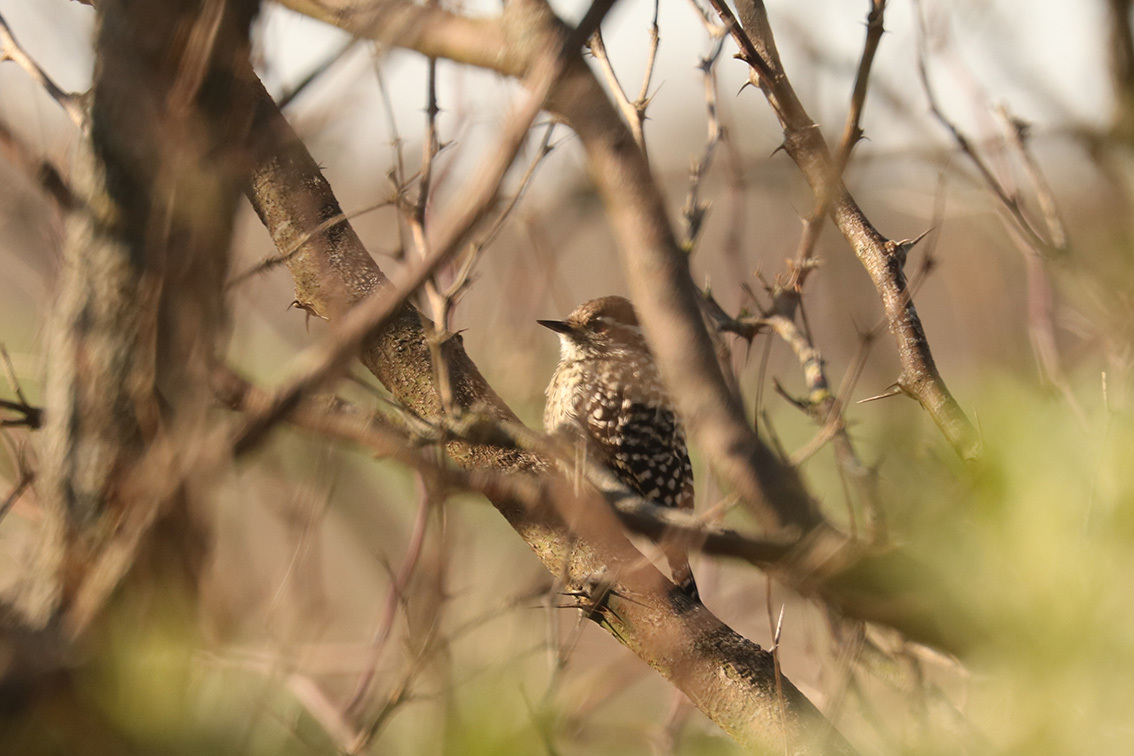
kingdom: Animalia
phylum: Chordata
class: Aves
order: Piciformes
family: Picidae
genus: Veniliornis
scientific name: Veniliornis mixtus
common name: Checkered woodpecker
